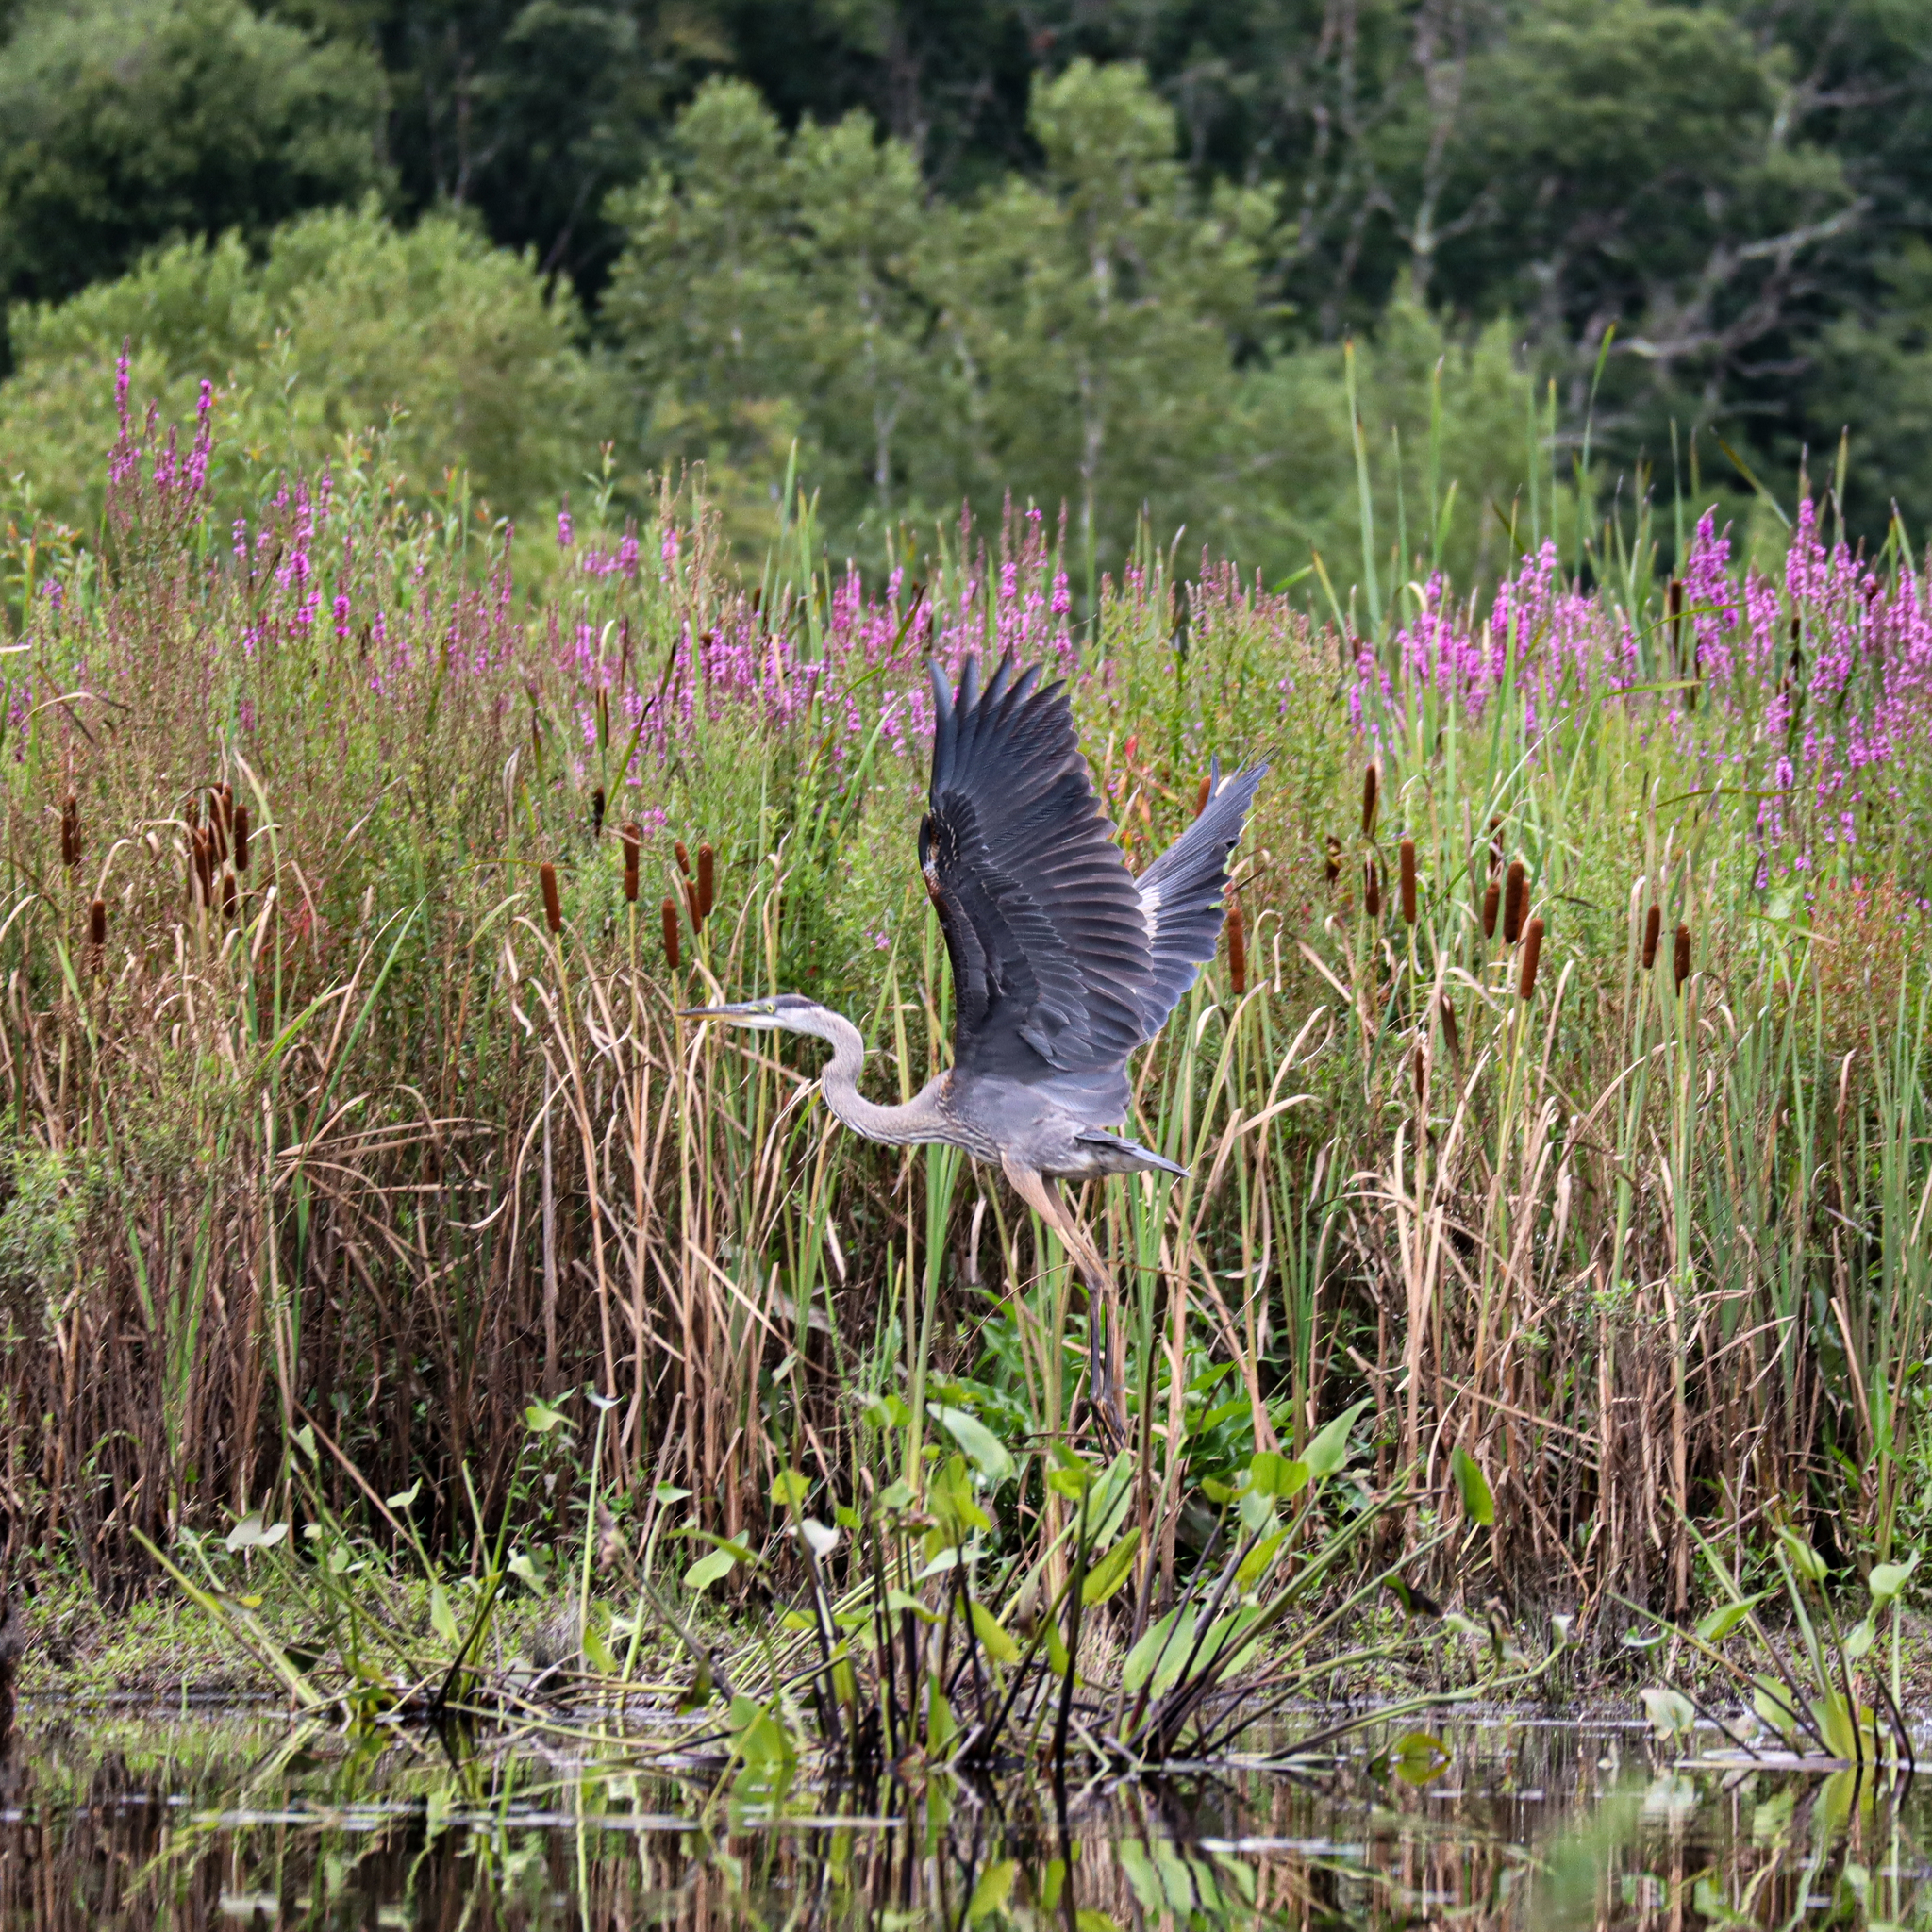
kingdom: Animalia
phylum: Chordata
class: Aves
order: Pelecaniformes
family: Ardeidae
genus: Ardea
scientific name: Ardea herodias
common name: Great blue heron
